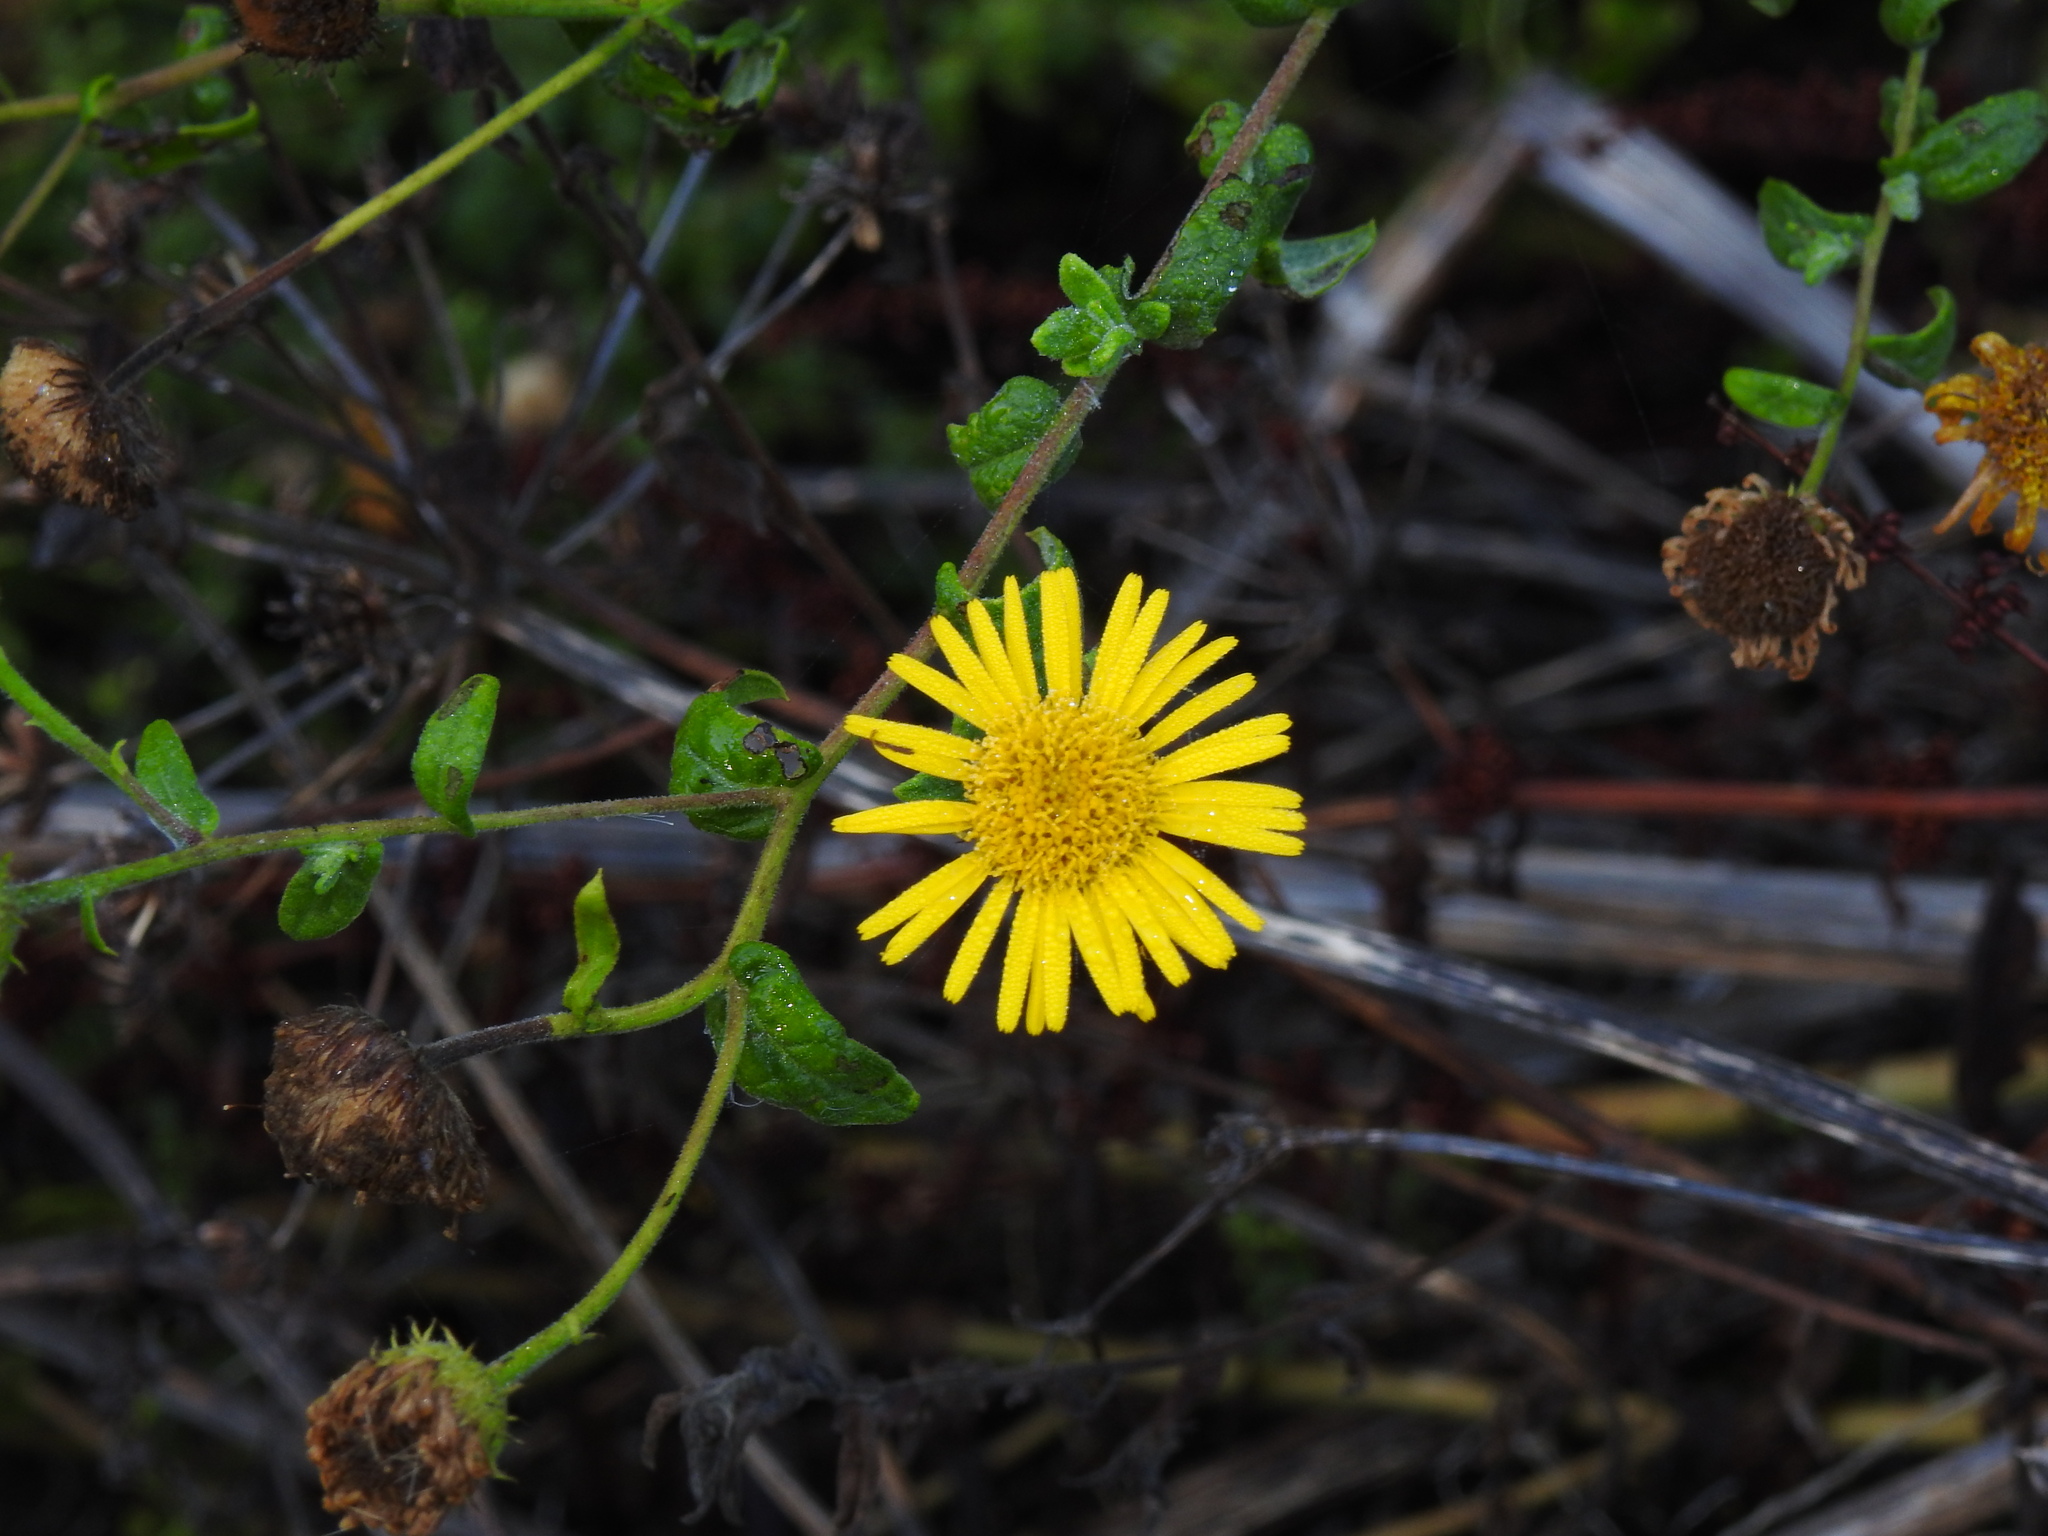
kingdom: Plantae
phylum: Tracheophyta
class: Magnoliopsida
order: Asterales
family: Asteraceae
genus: Pulicaria
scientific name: Pulicaria dysenterica
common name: Common fleabane
